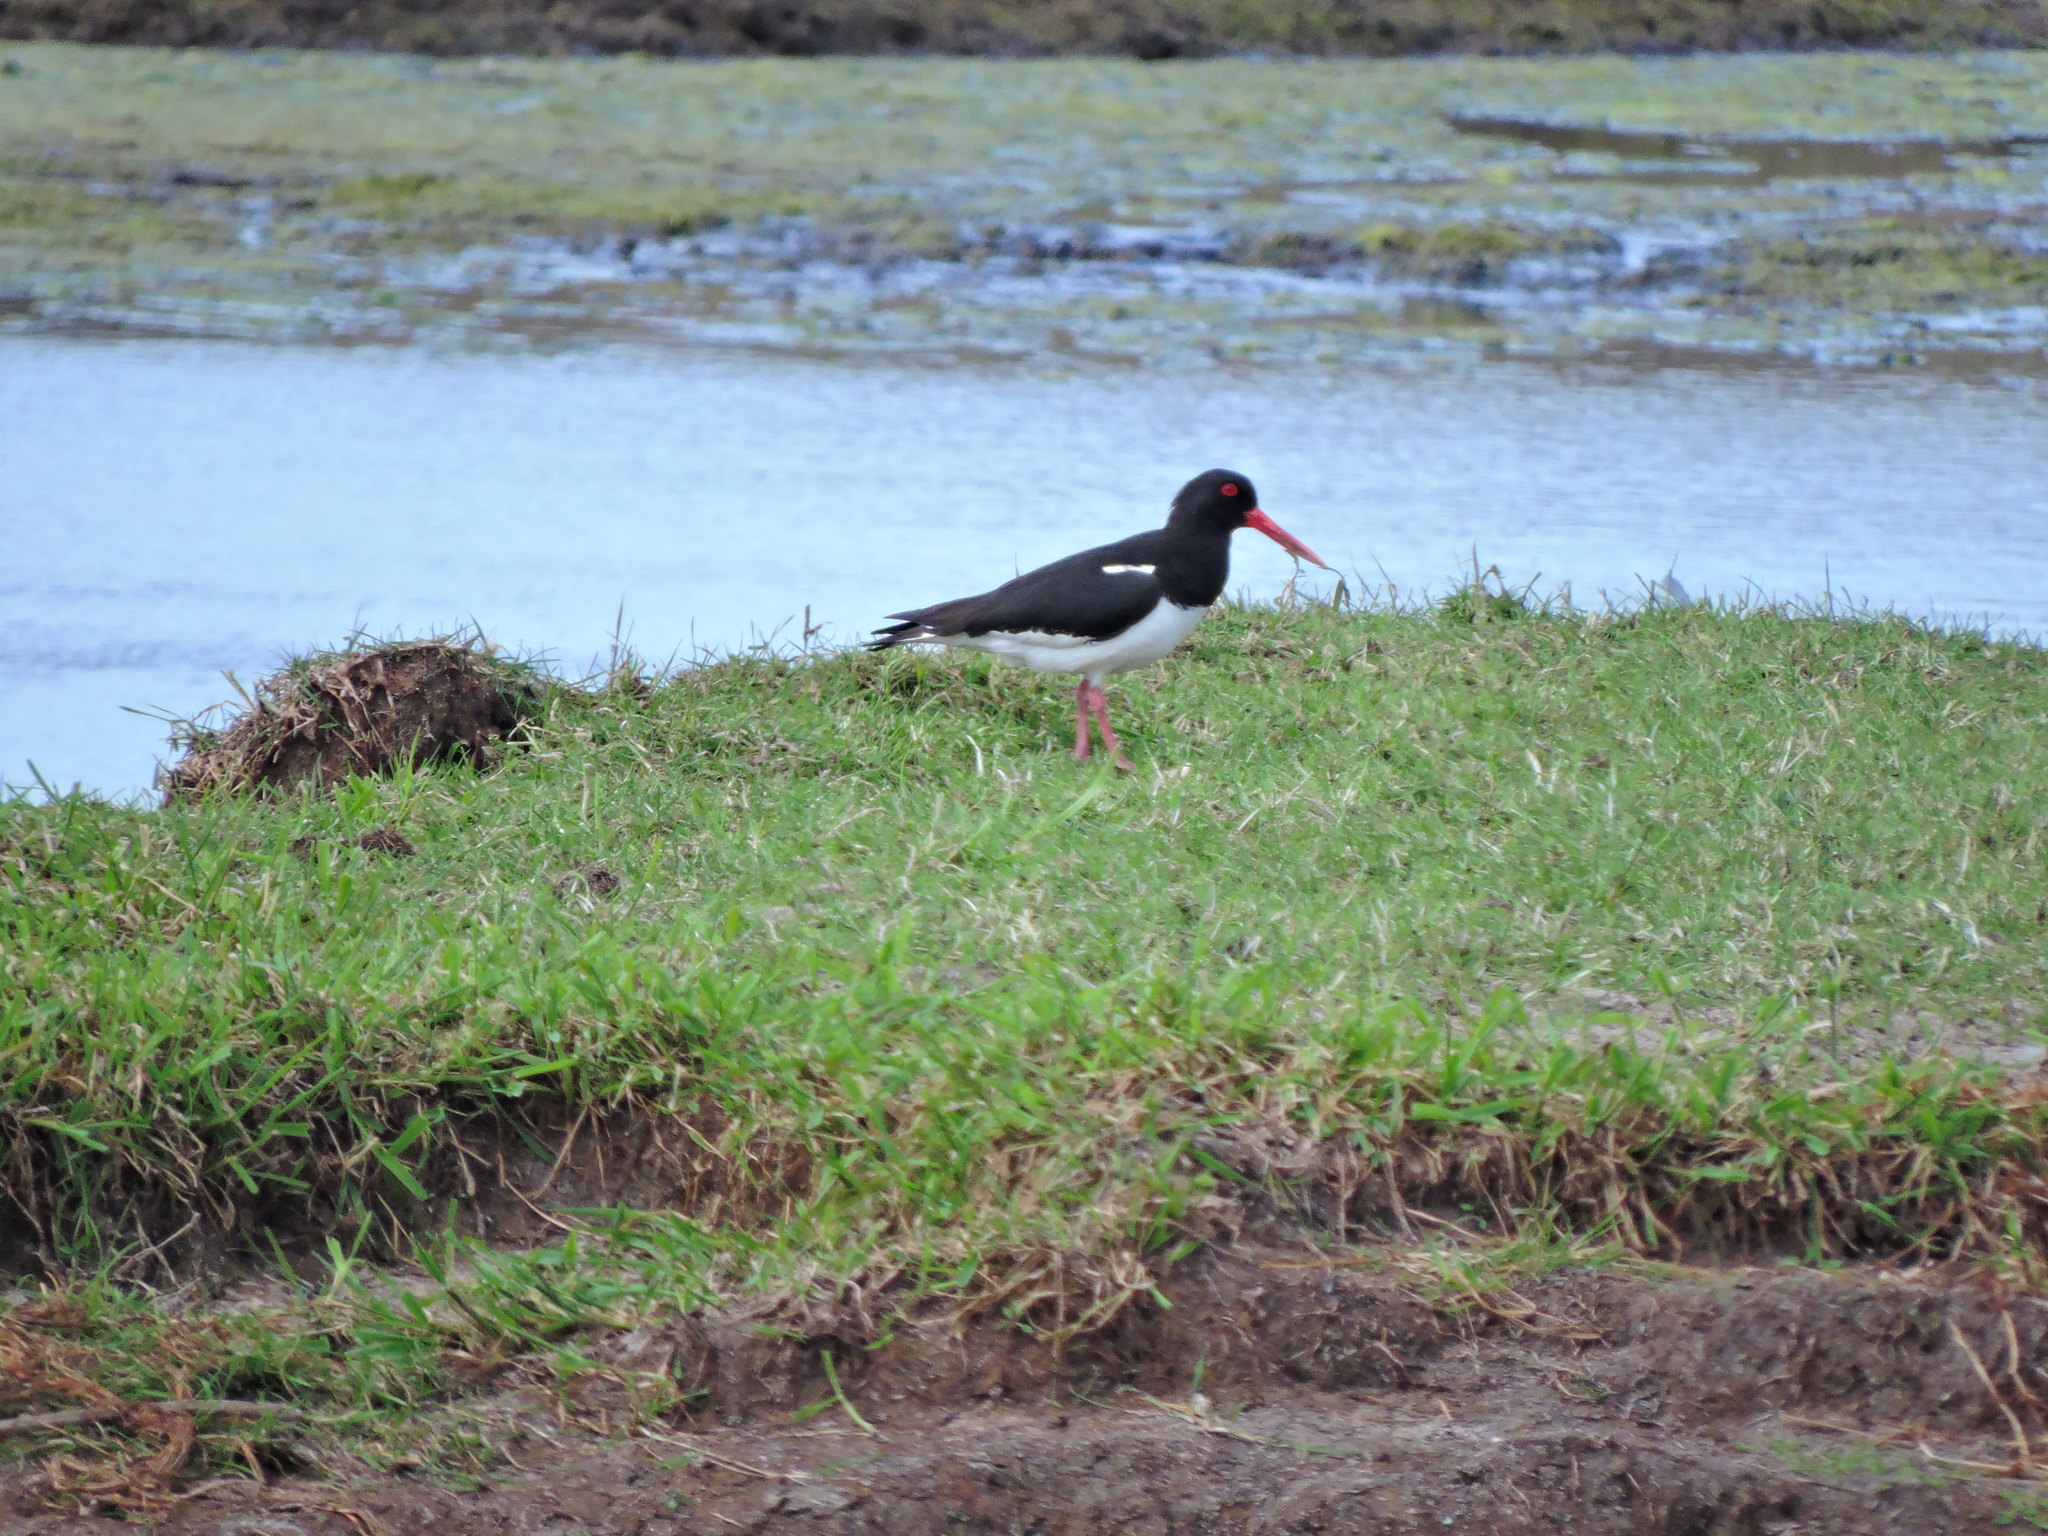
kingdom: Animalia
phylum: Chordata
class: Aves
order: Charadriiformes
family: Haematopodidae
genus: Haematopus
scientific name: Haematopus ostralegus
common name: Eurasian oystercatcher
